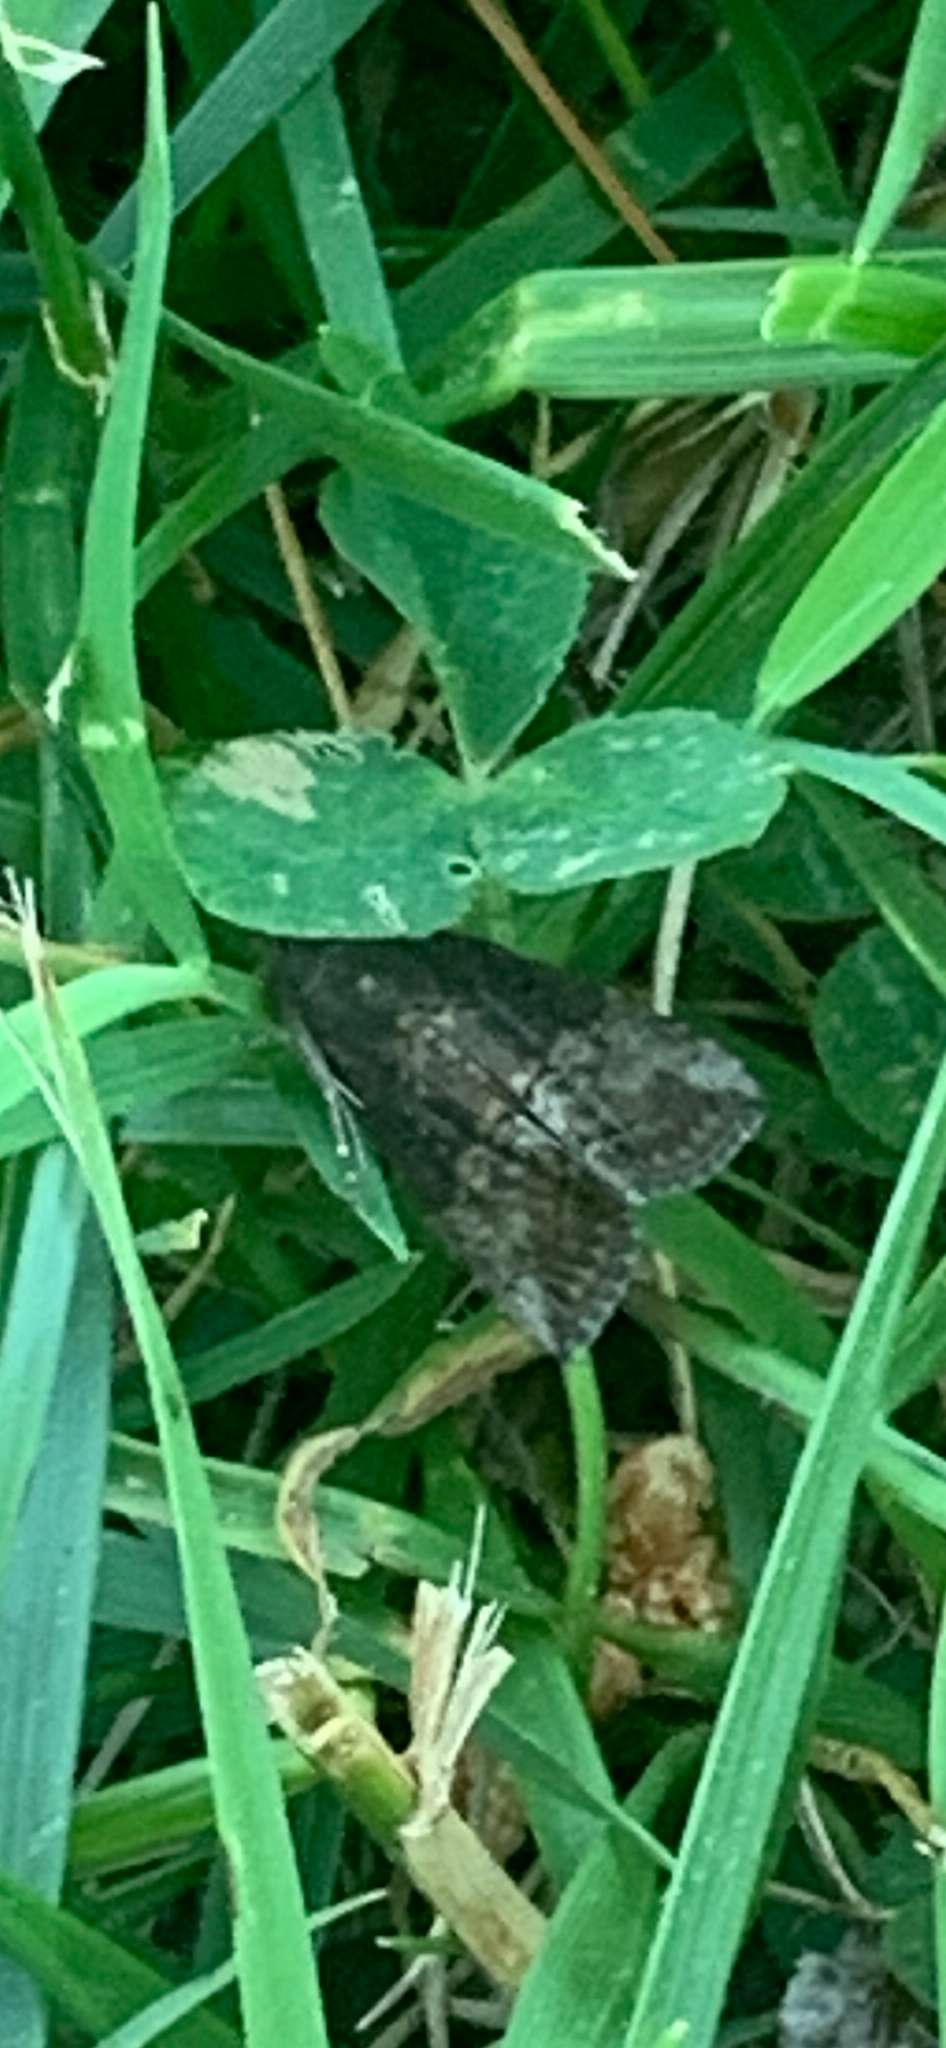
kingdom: Animalia
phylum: Arthropoda
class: Insecta
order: Lepidoptera
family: Erebidae
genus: Hypena
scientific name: Hypena scabra
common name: Green cloverworm
